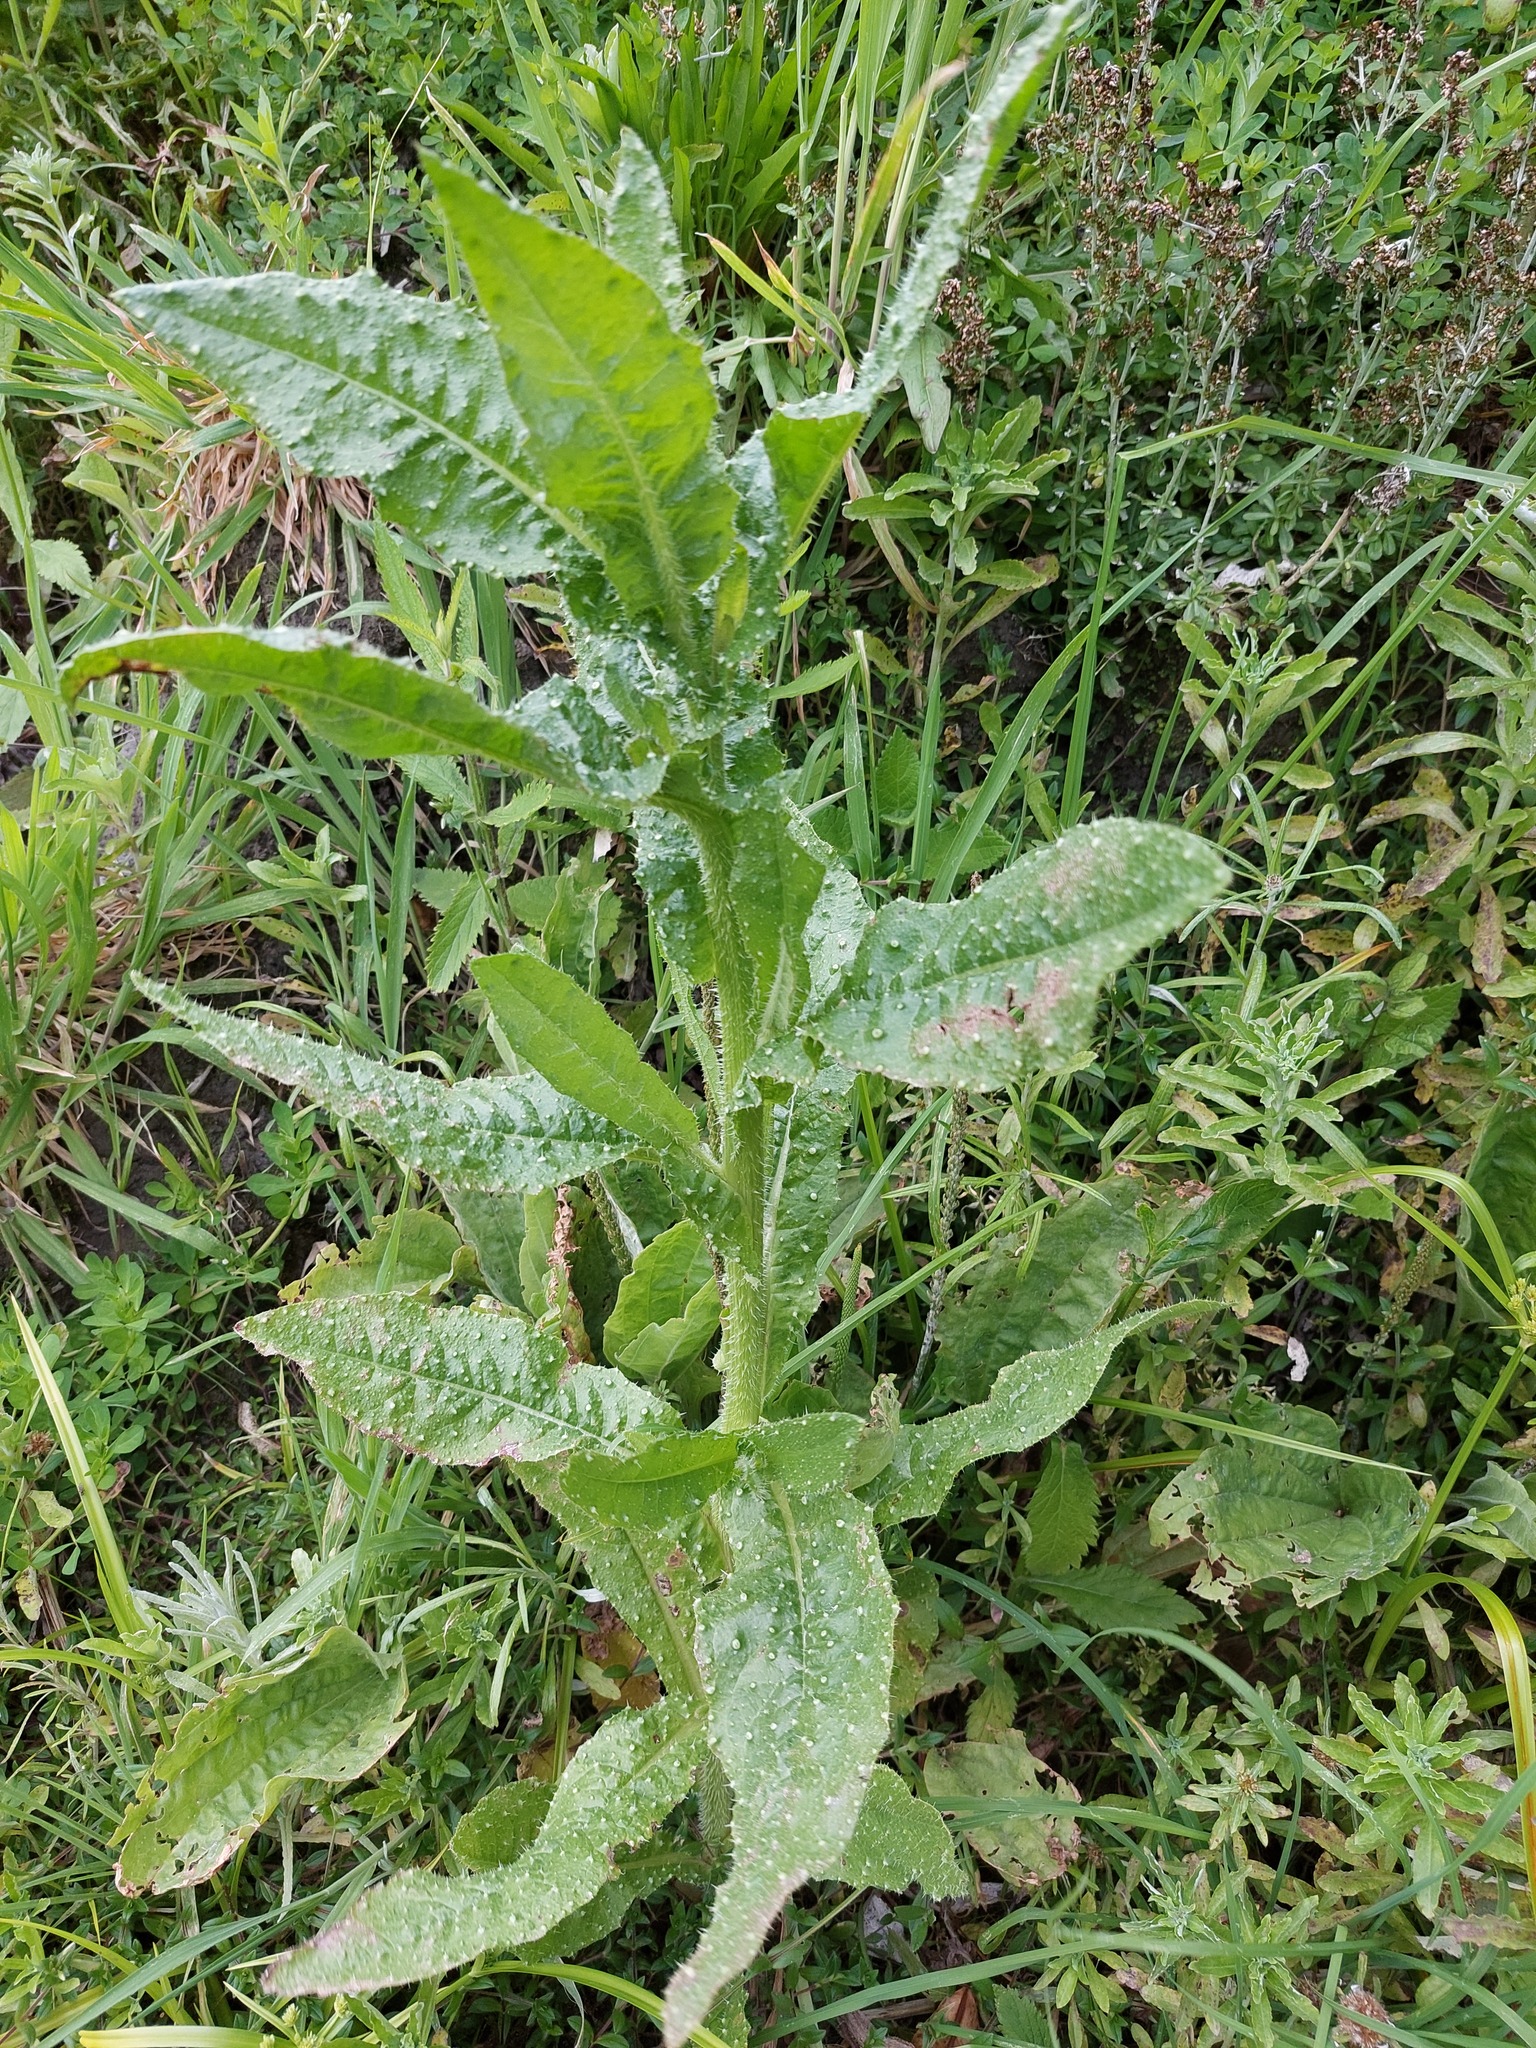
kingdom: Plantae
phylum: Tracheophyta
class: Magnoliopsida
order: Asterales
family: Asteraceae
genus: Helminthotheca
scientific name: Helminthotheca echioides
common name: Ox-tongue
